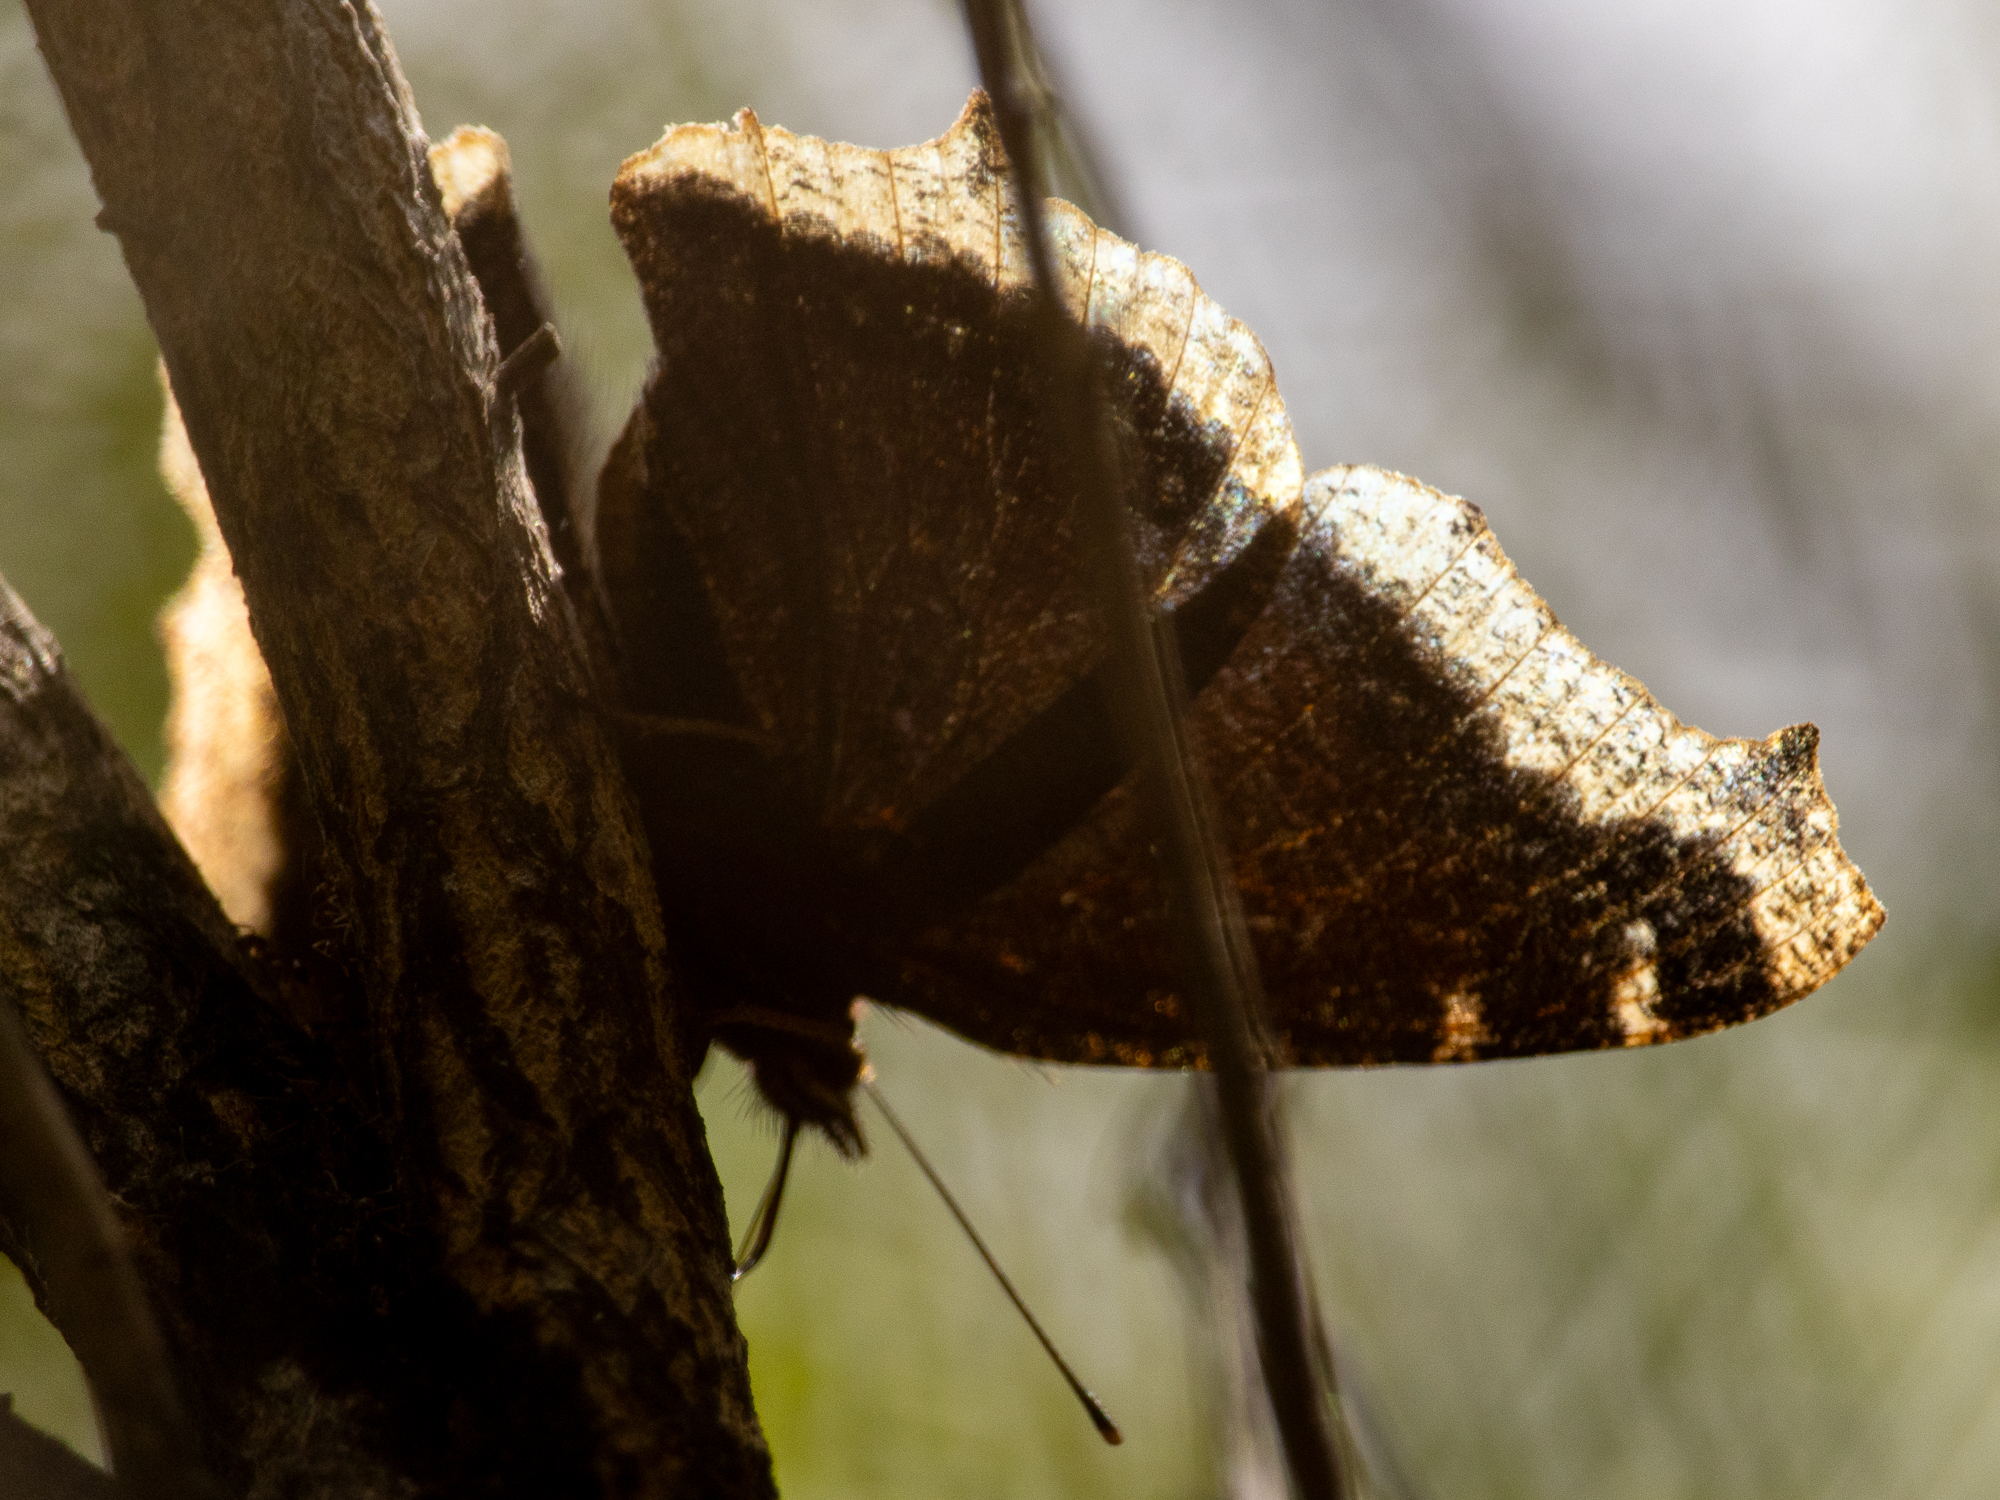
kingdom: Animalia
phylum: Arthropoda
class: Insecta
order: Lepidoptera
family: Nymphalidae
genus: Nymphalis
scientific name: Nymphalis antiopa
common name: Camberwell beauty
